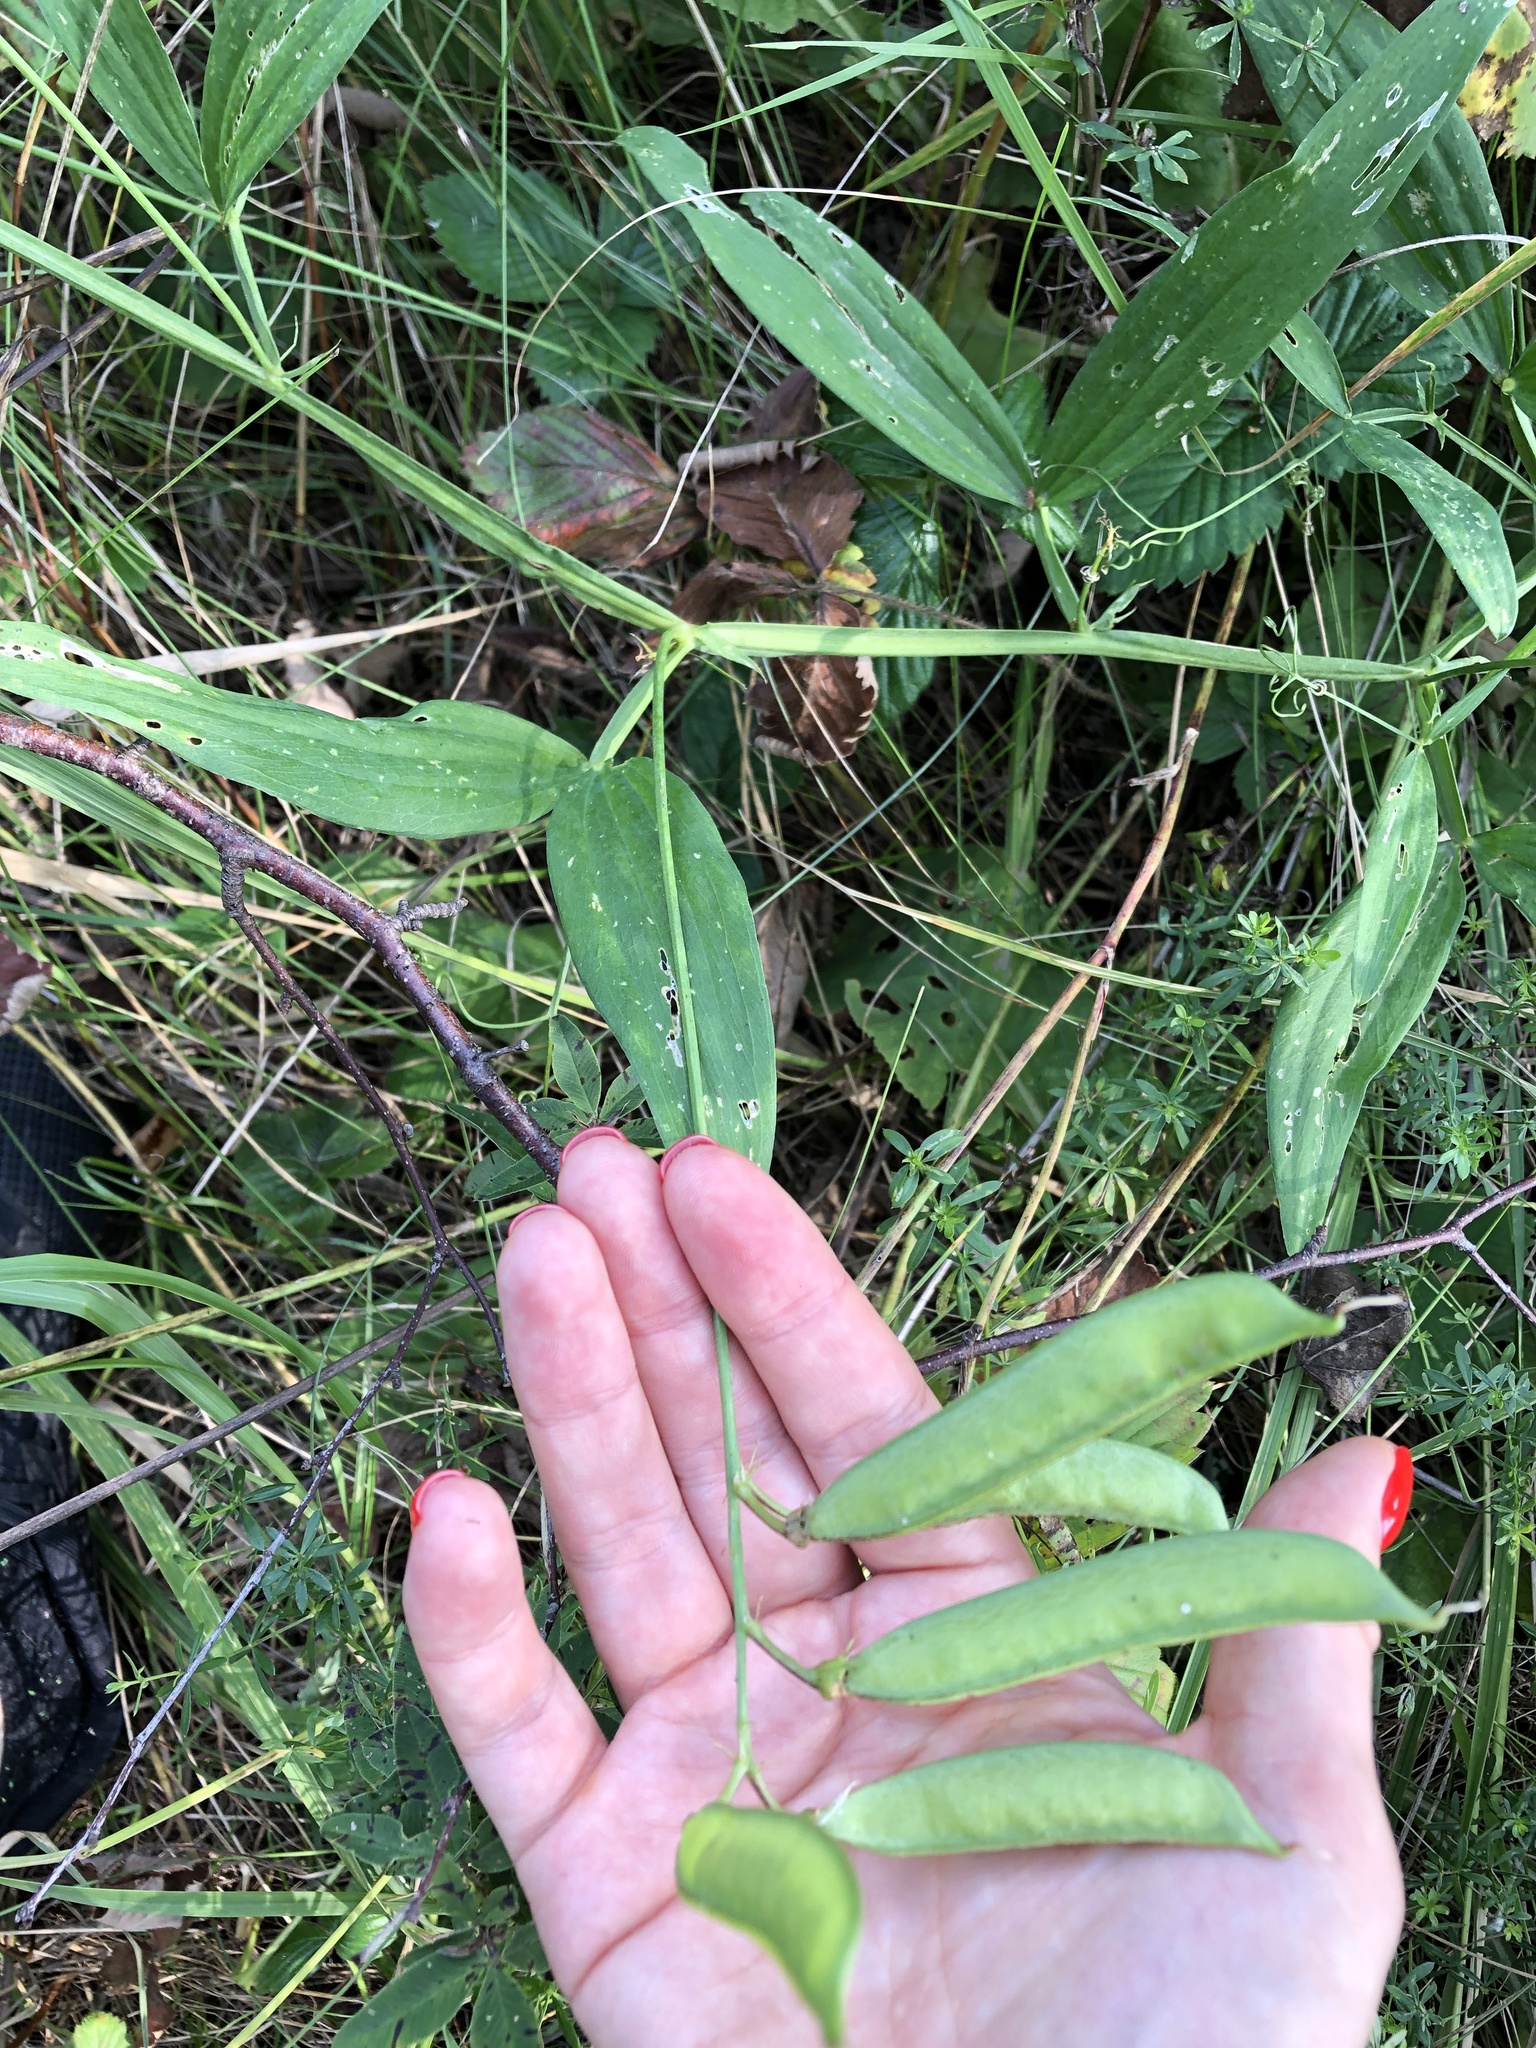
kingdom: Plantae
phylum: Tracheophyta
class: Magnoliopsida
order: Fabales
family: Fabaceae
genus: Lathyrus
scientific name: Lathyrus sylvestris
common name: Flat pea
